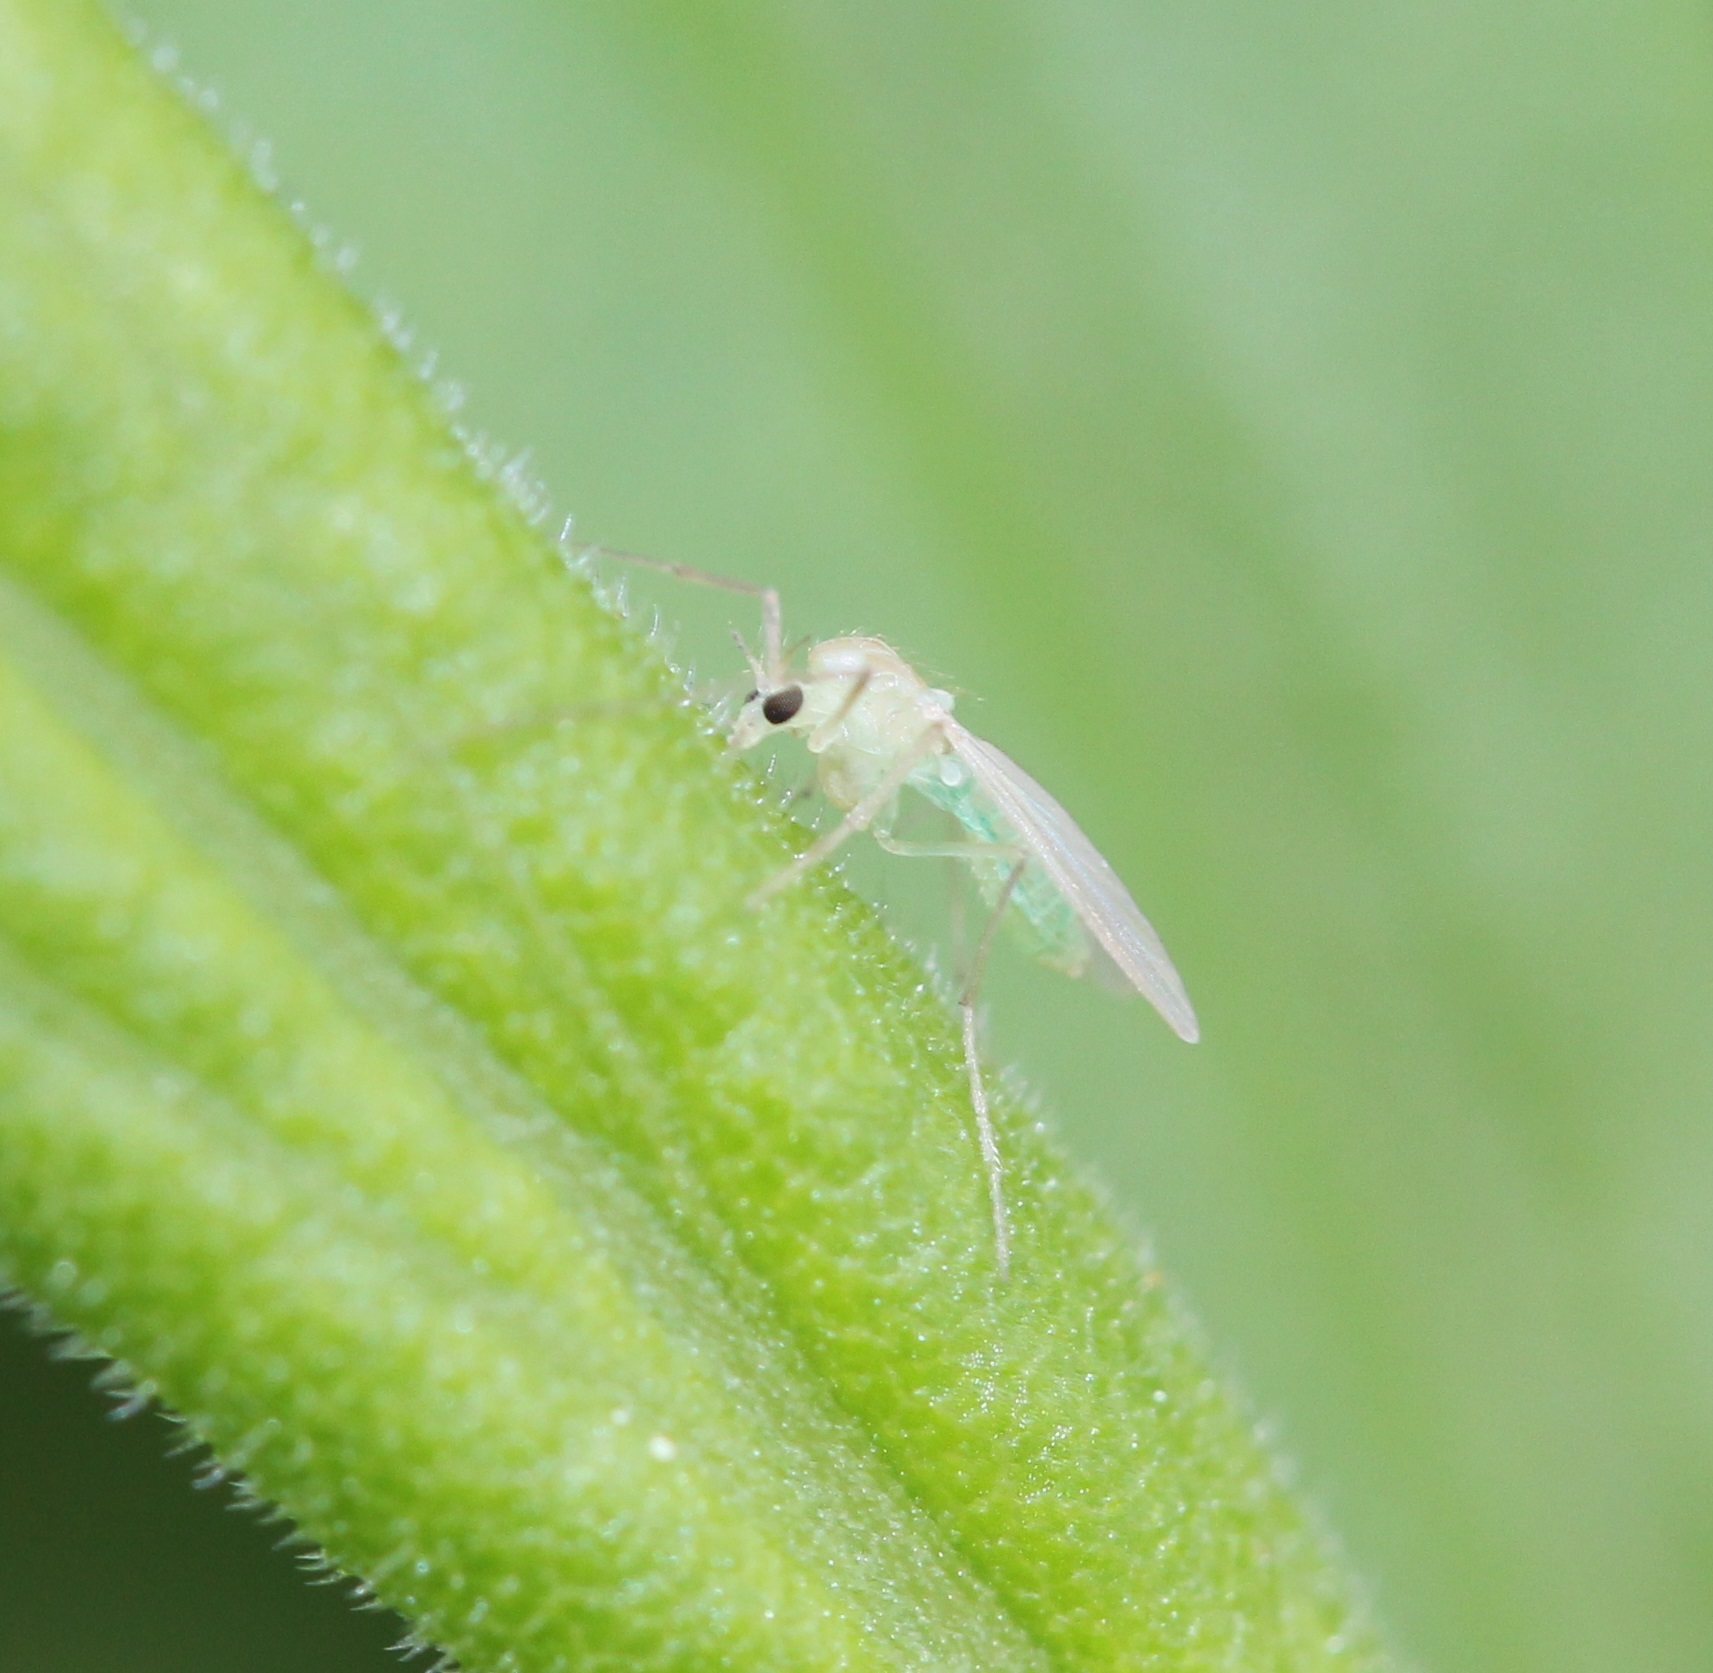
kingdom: Animalia
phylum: Arthropoda
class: Insecta
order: Diptera
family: Chironomidae
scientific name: Chironomidae
